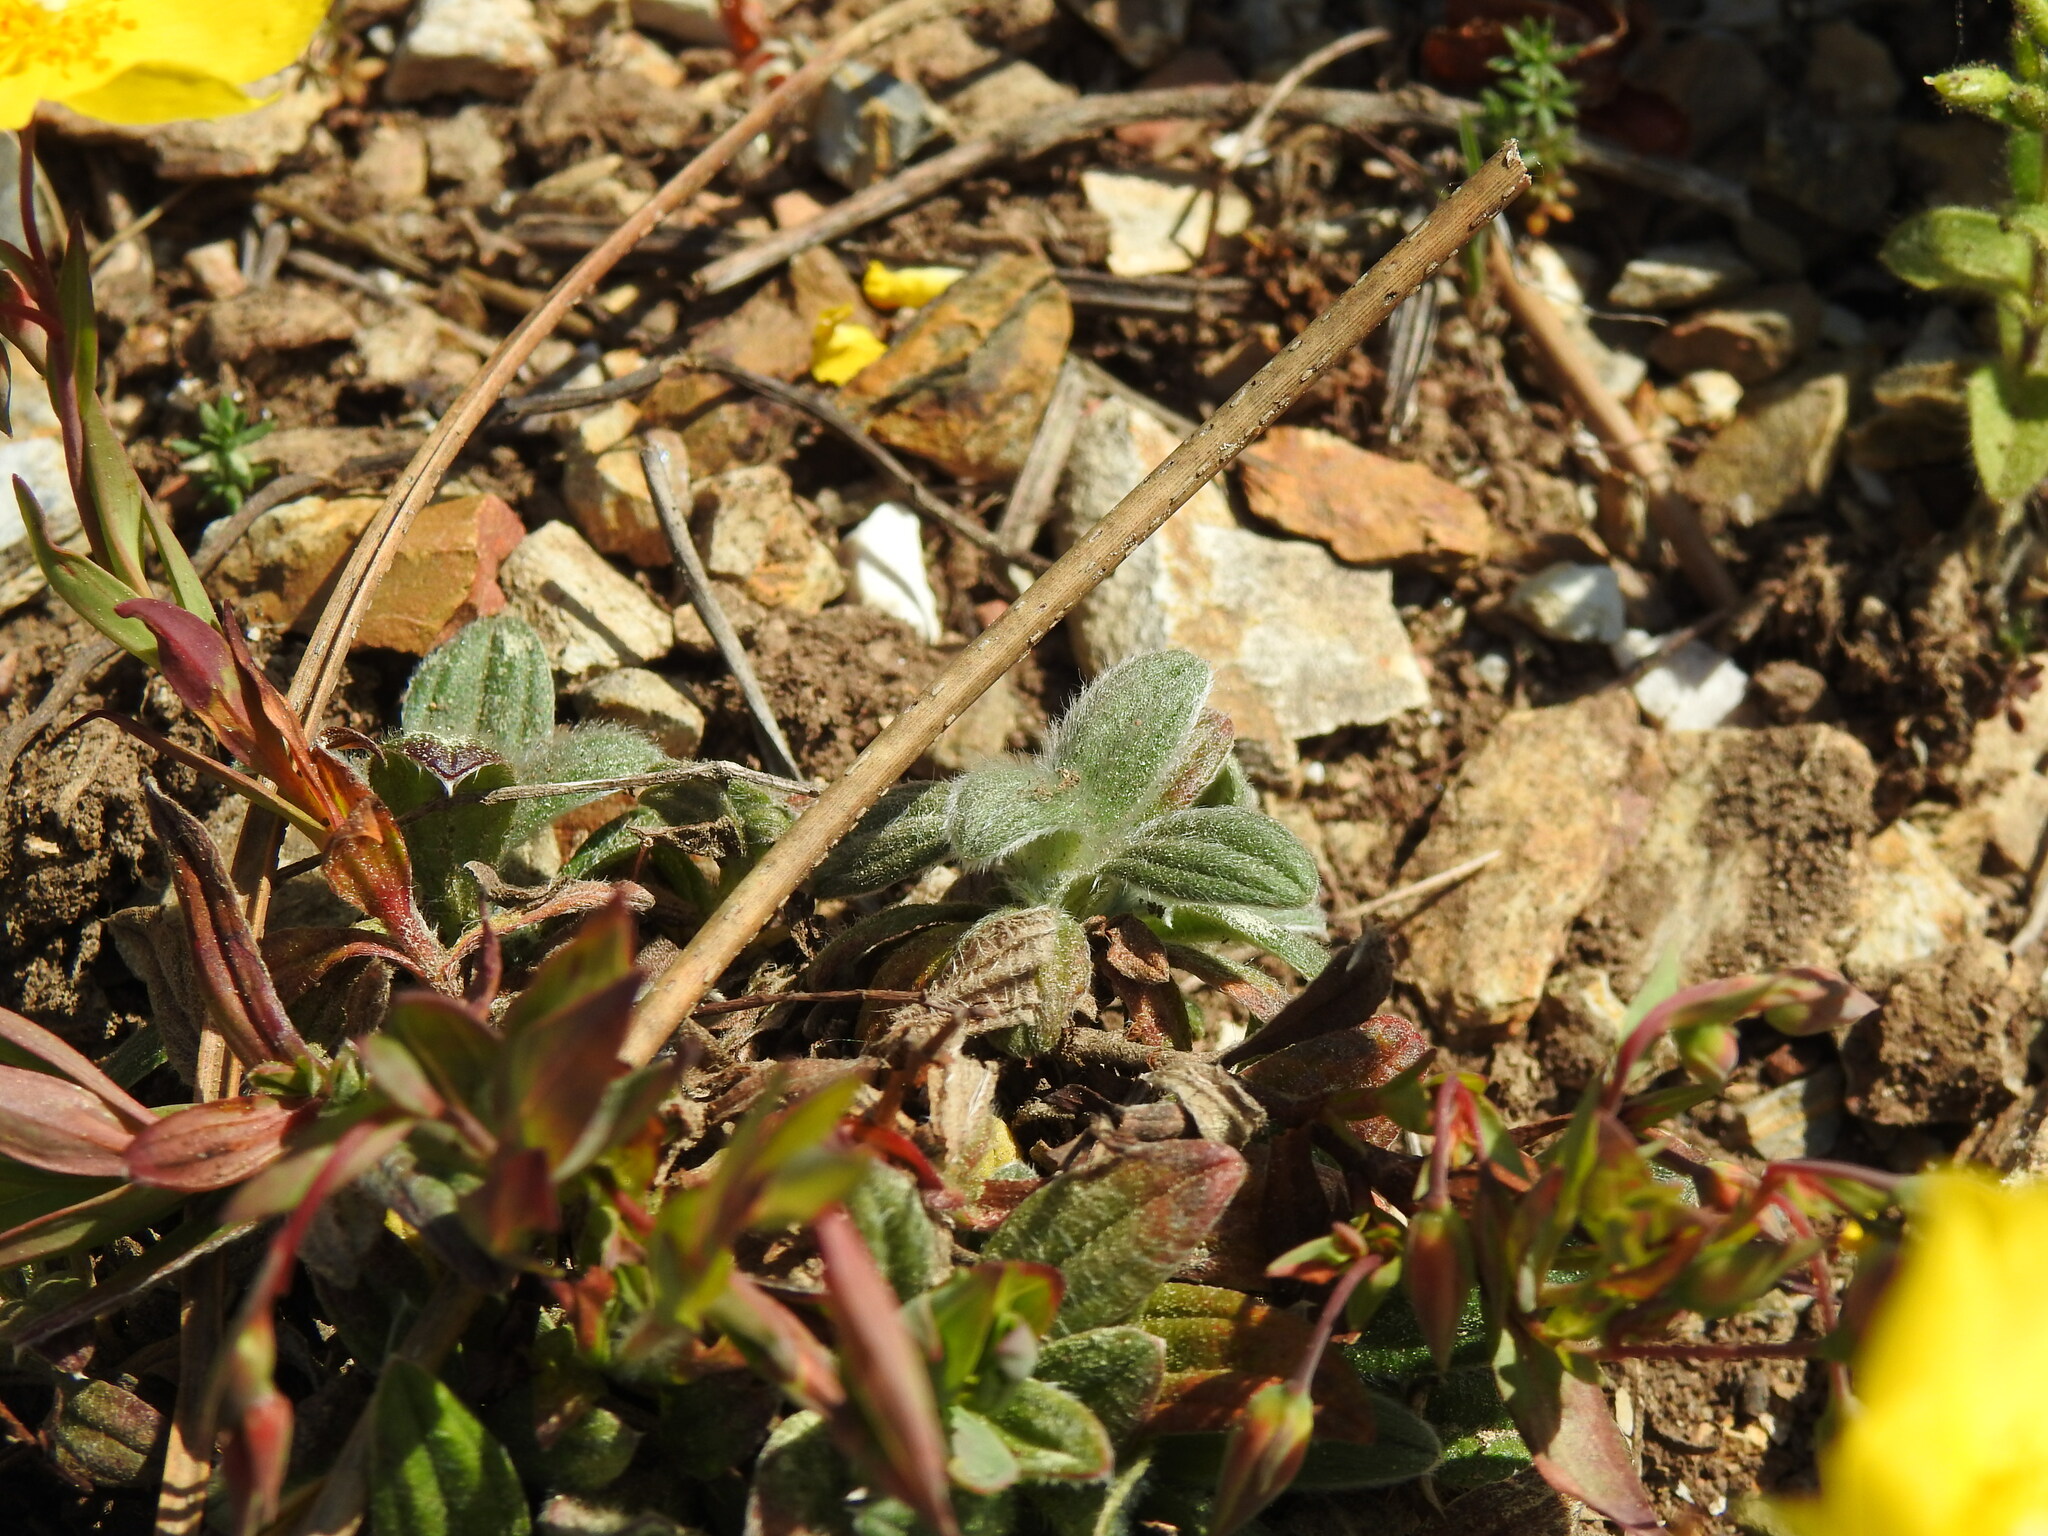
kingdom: Plantae
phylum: Tracheophyta
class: Magnoliopsida
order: Malvales
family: Cistaceae
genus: Tuberaria
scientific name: Tuberaria lignosa
